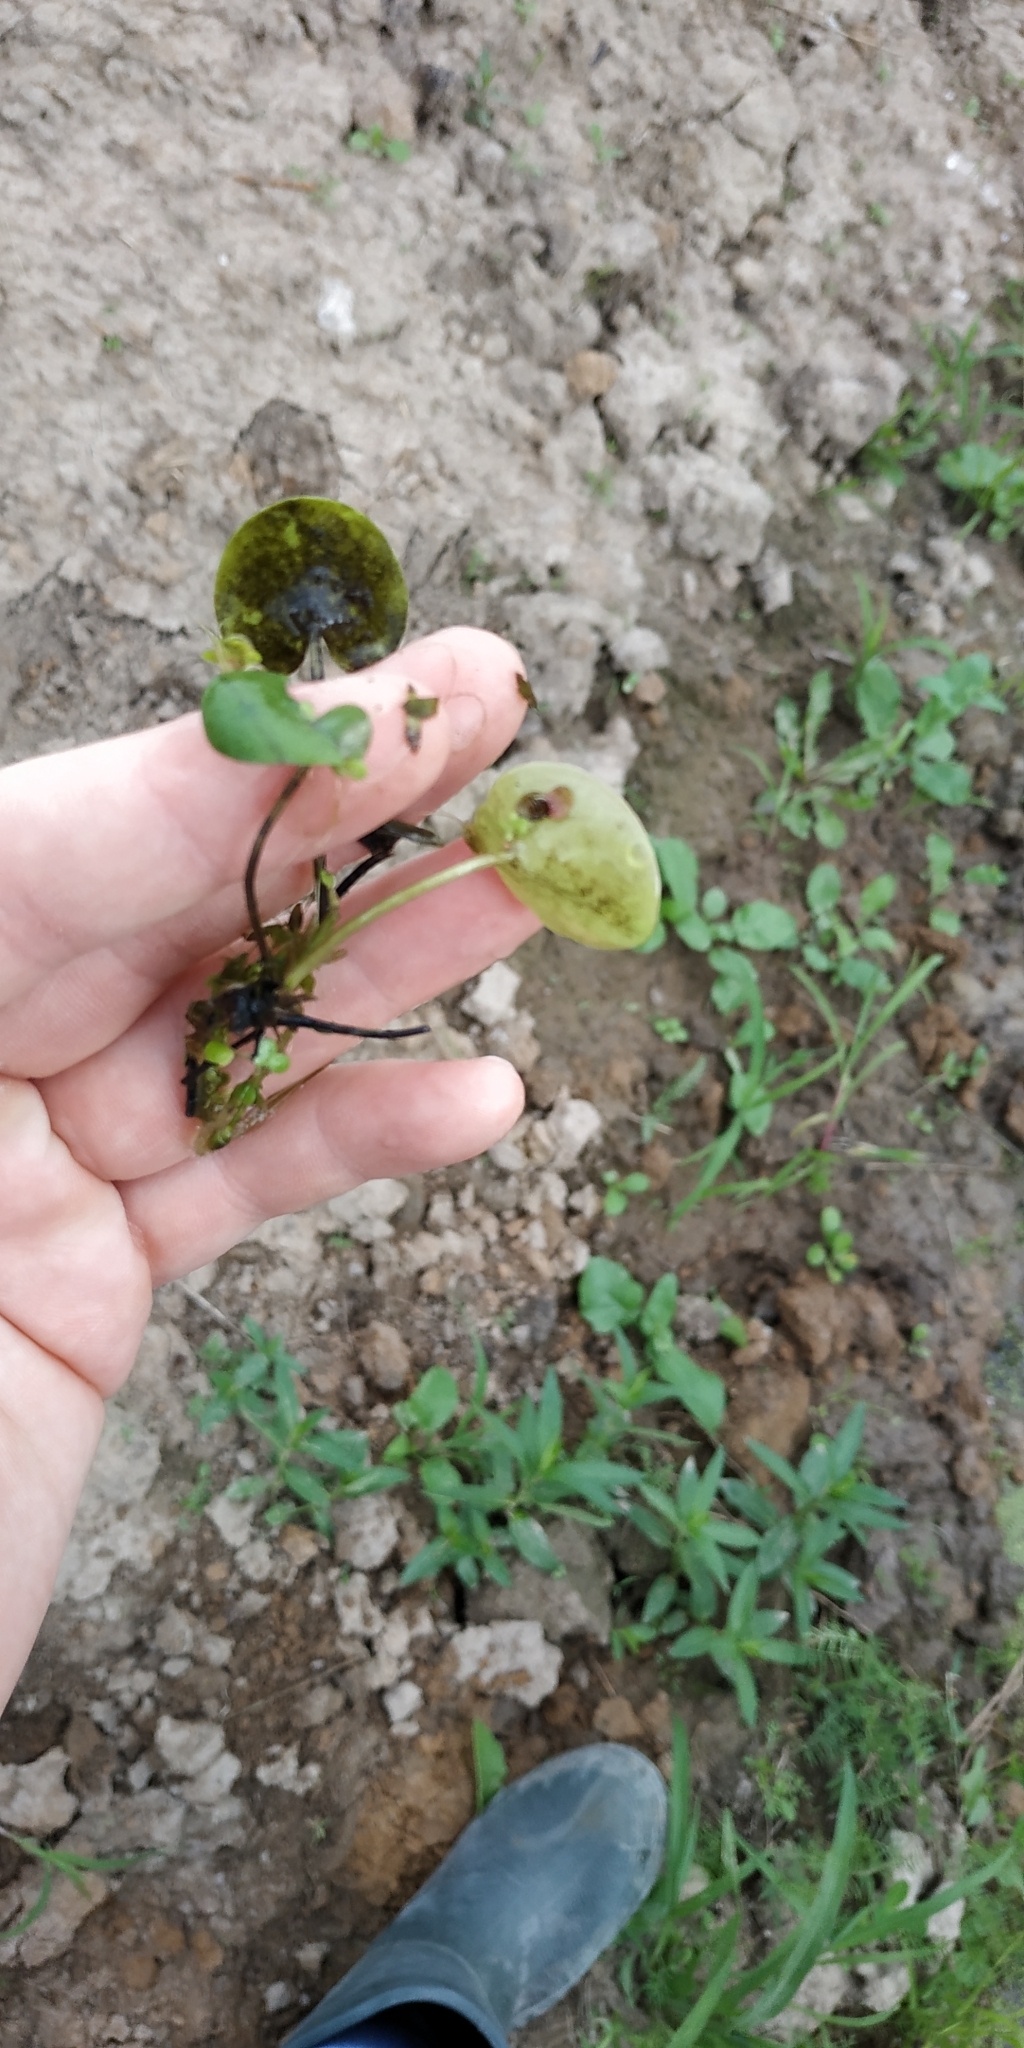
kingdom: Plantae
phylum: Tracheophyta
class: Liliopsida
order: Alismatales
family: Hydrocharitaceae
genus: Hydrocharis
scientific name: Hydrocharis morsus-ranae
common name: Frogbit
